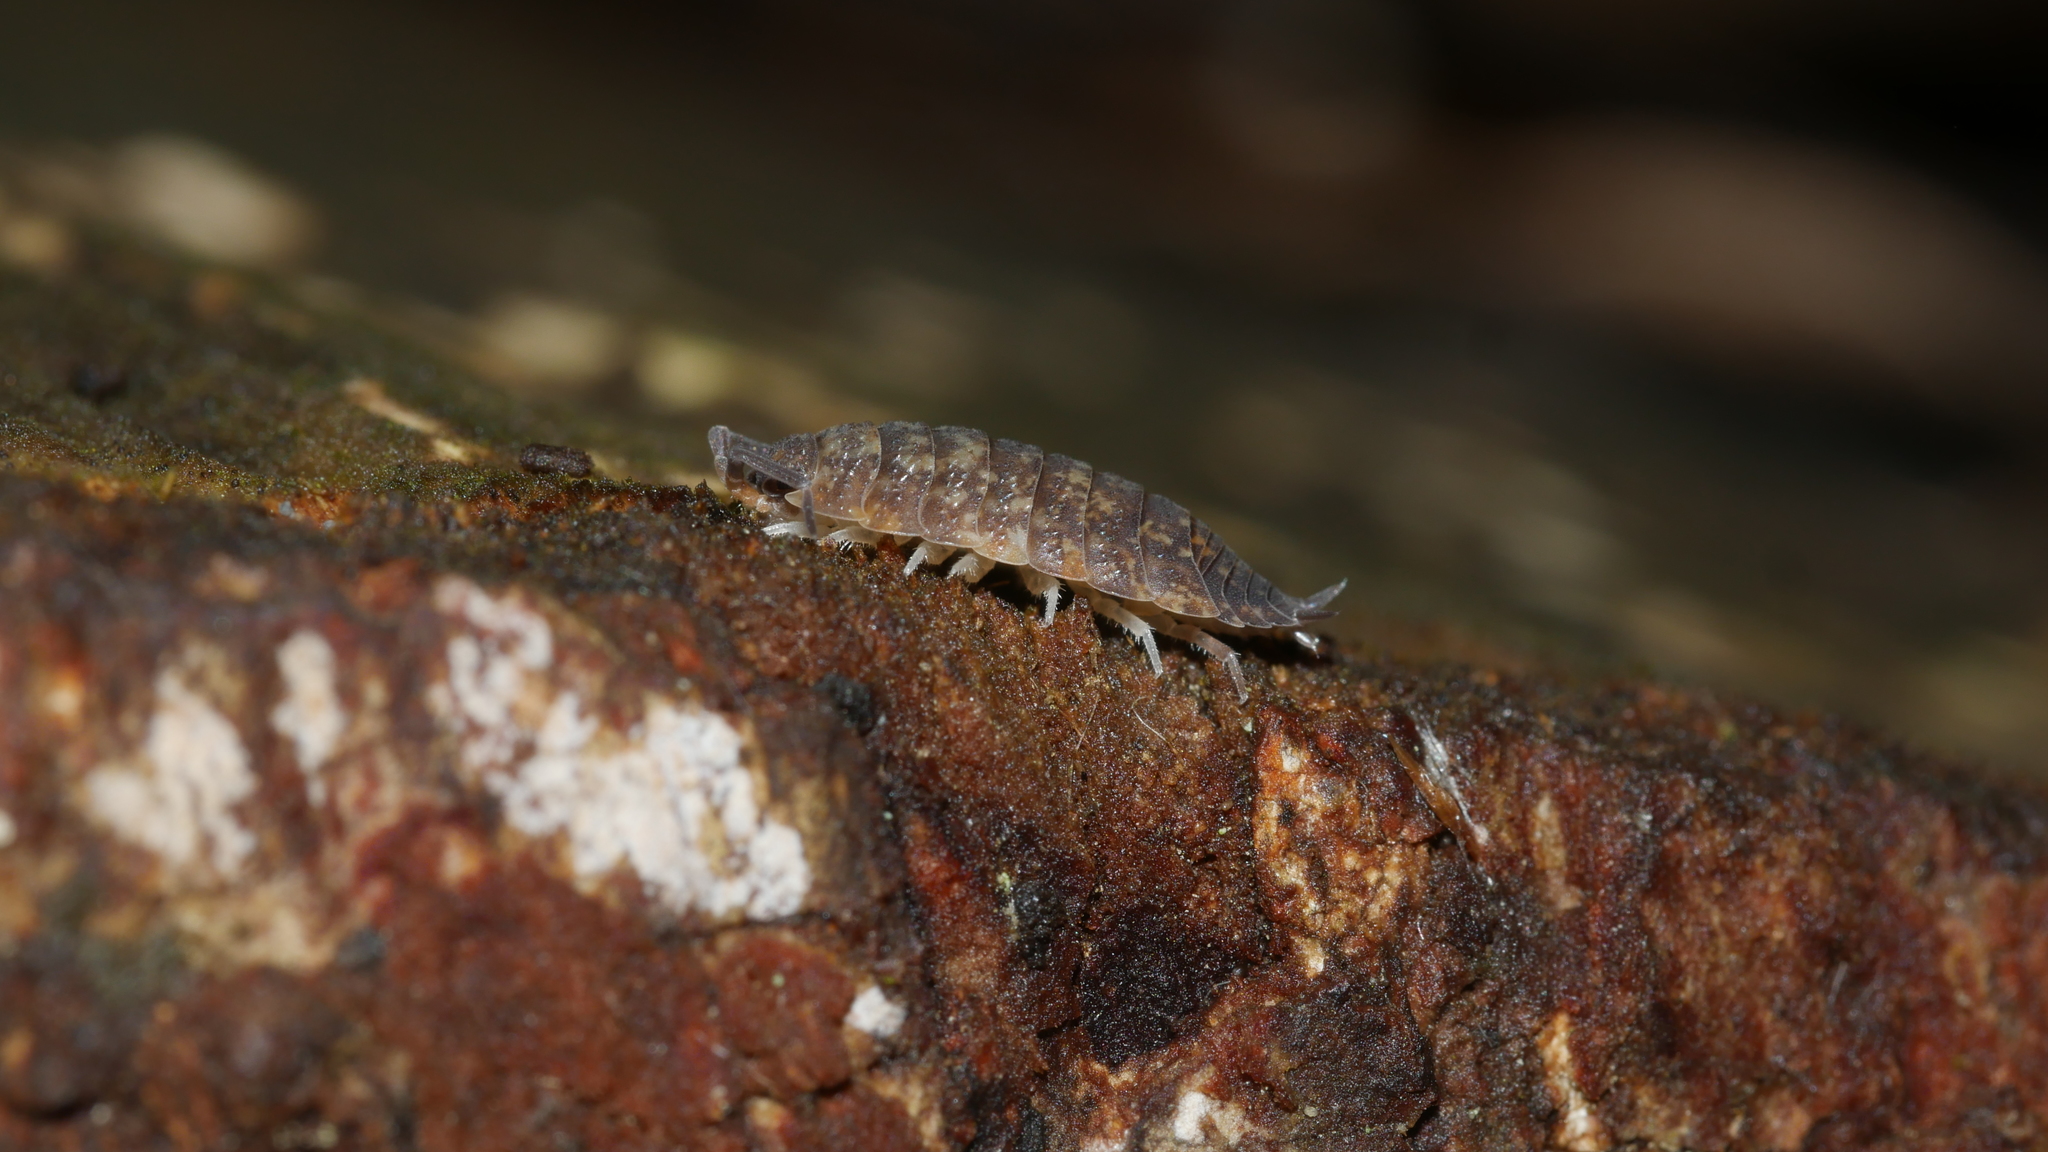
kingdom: Animalia
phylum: Arthropoda
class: Malacostraca
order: Isopoda
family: Porcellionidae
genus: Porcellio
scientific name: Porcellio scaber
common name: Common rough woodlouse
